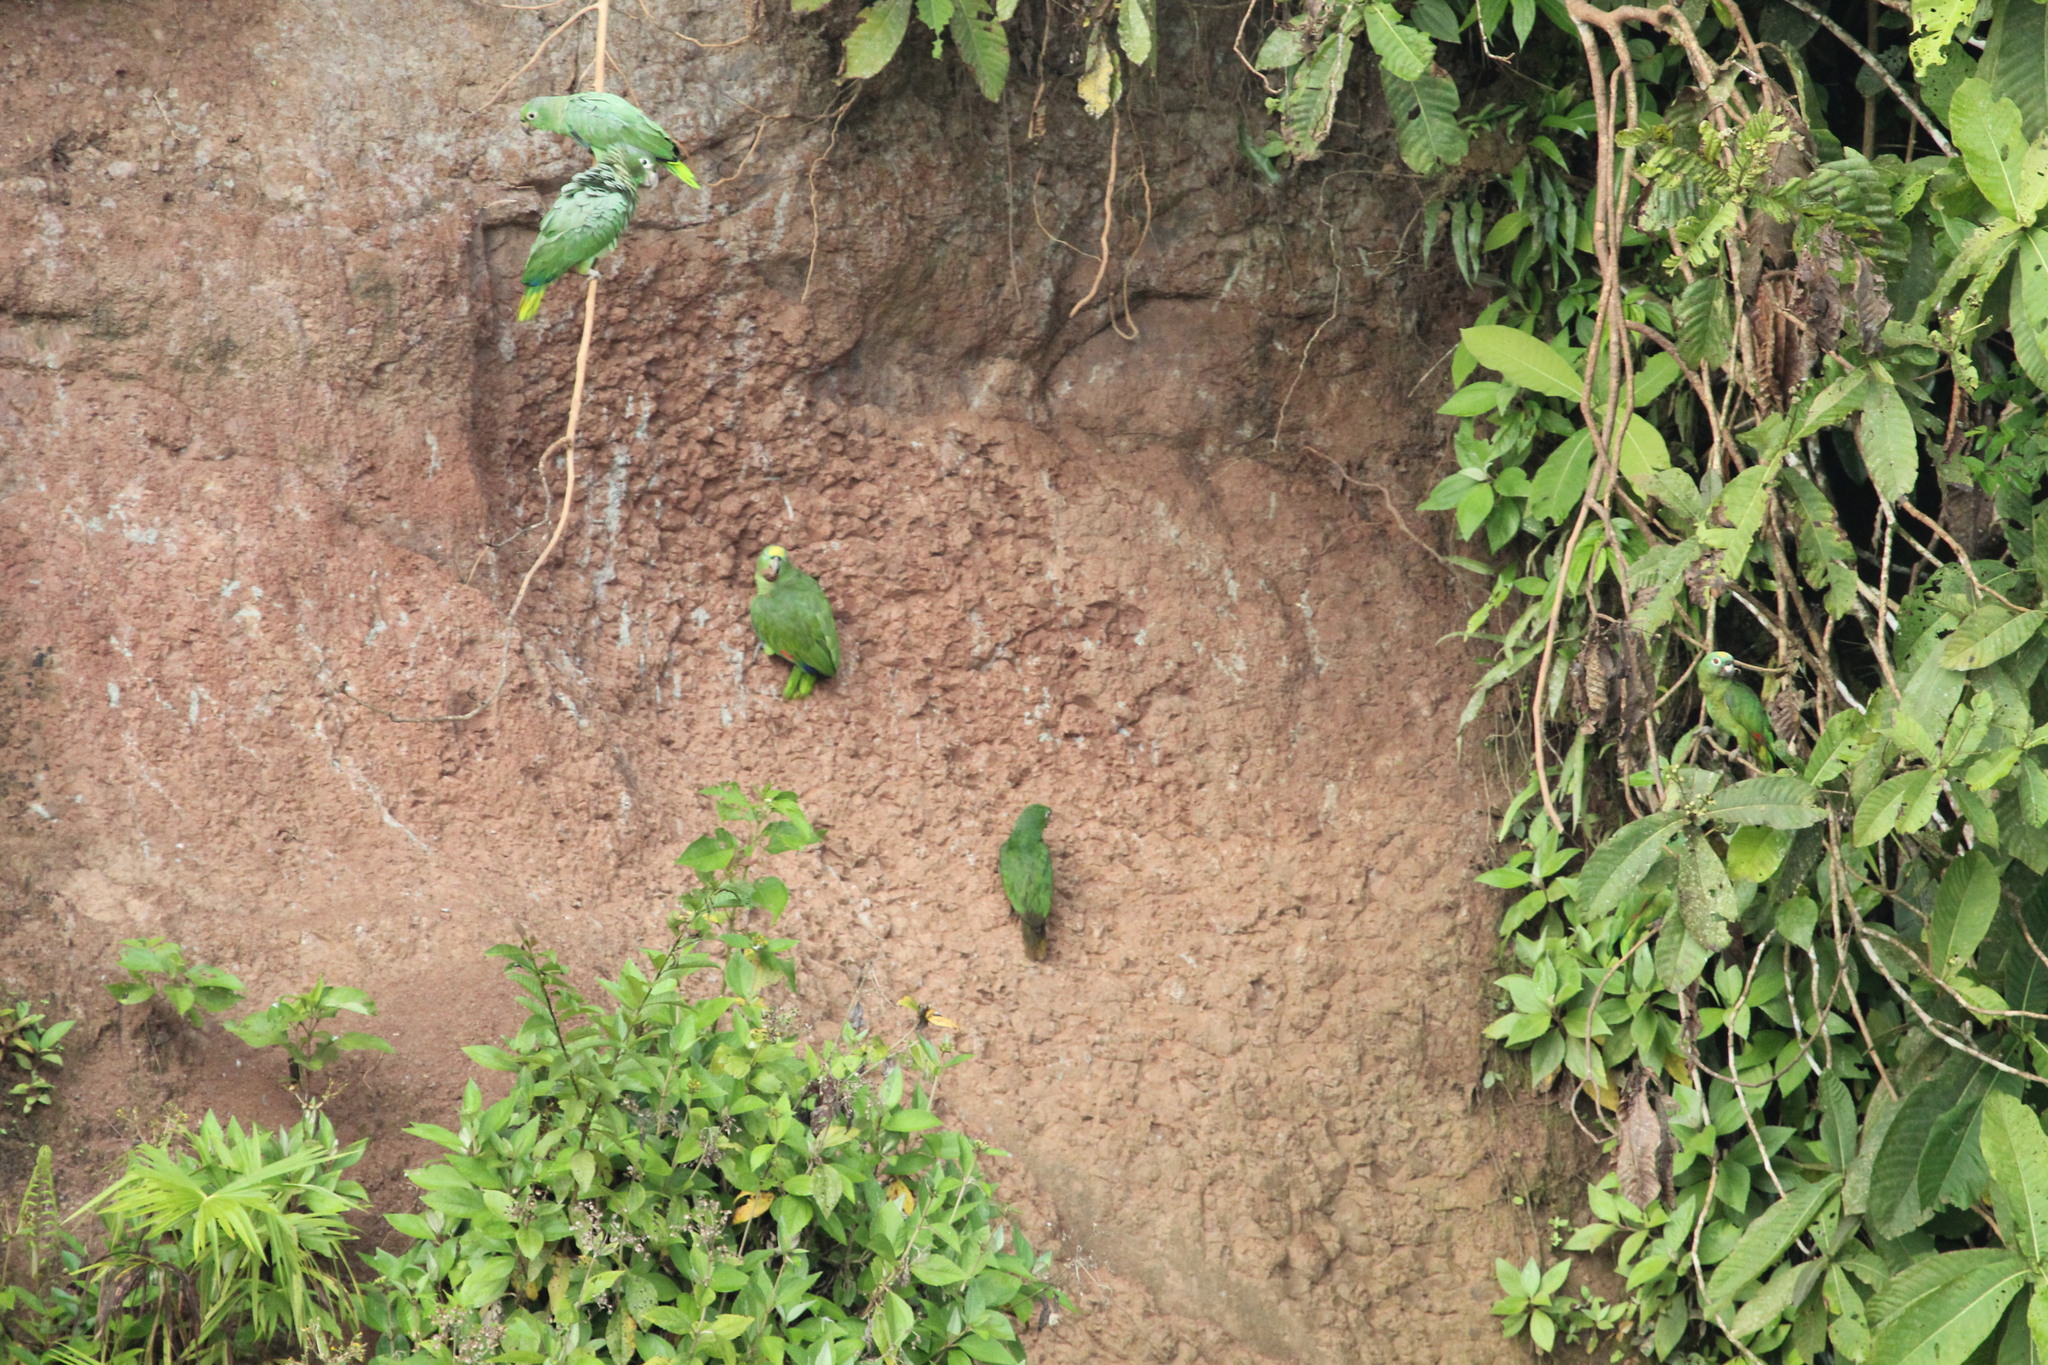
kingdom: Animalia
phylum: Chordata
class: Aves
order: Psittaciformes
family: Psittacidae
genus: Amazona
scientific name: Amazona farinosa
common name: Mealy parrot
